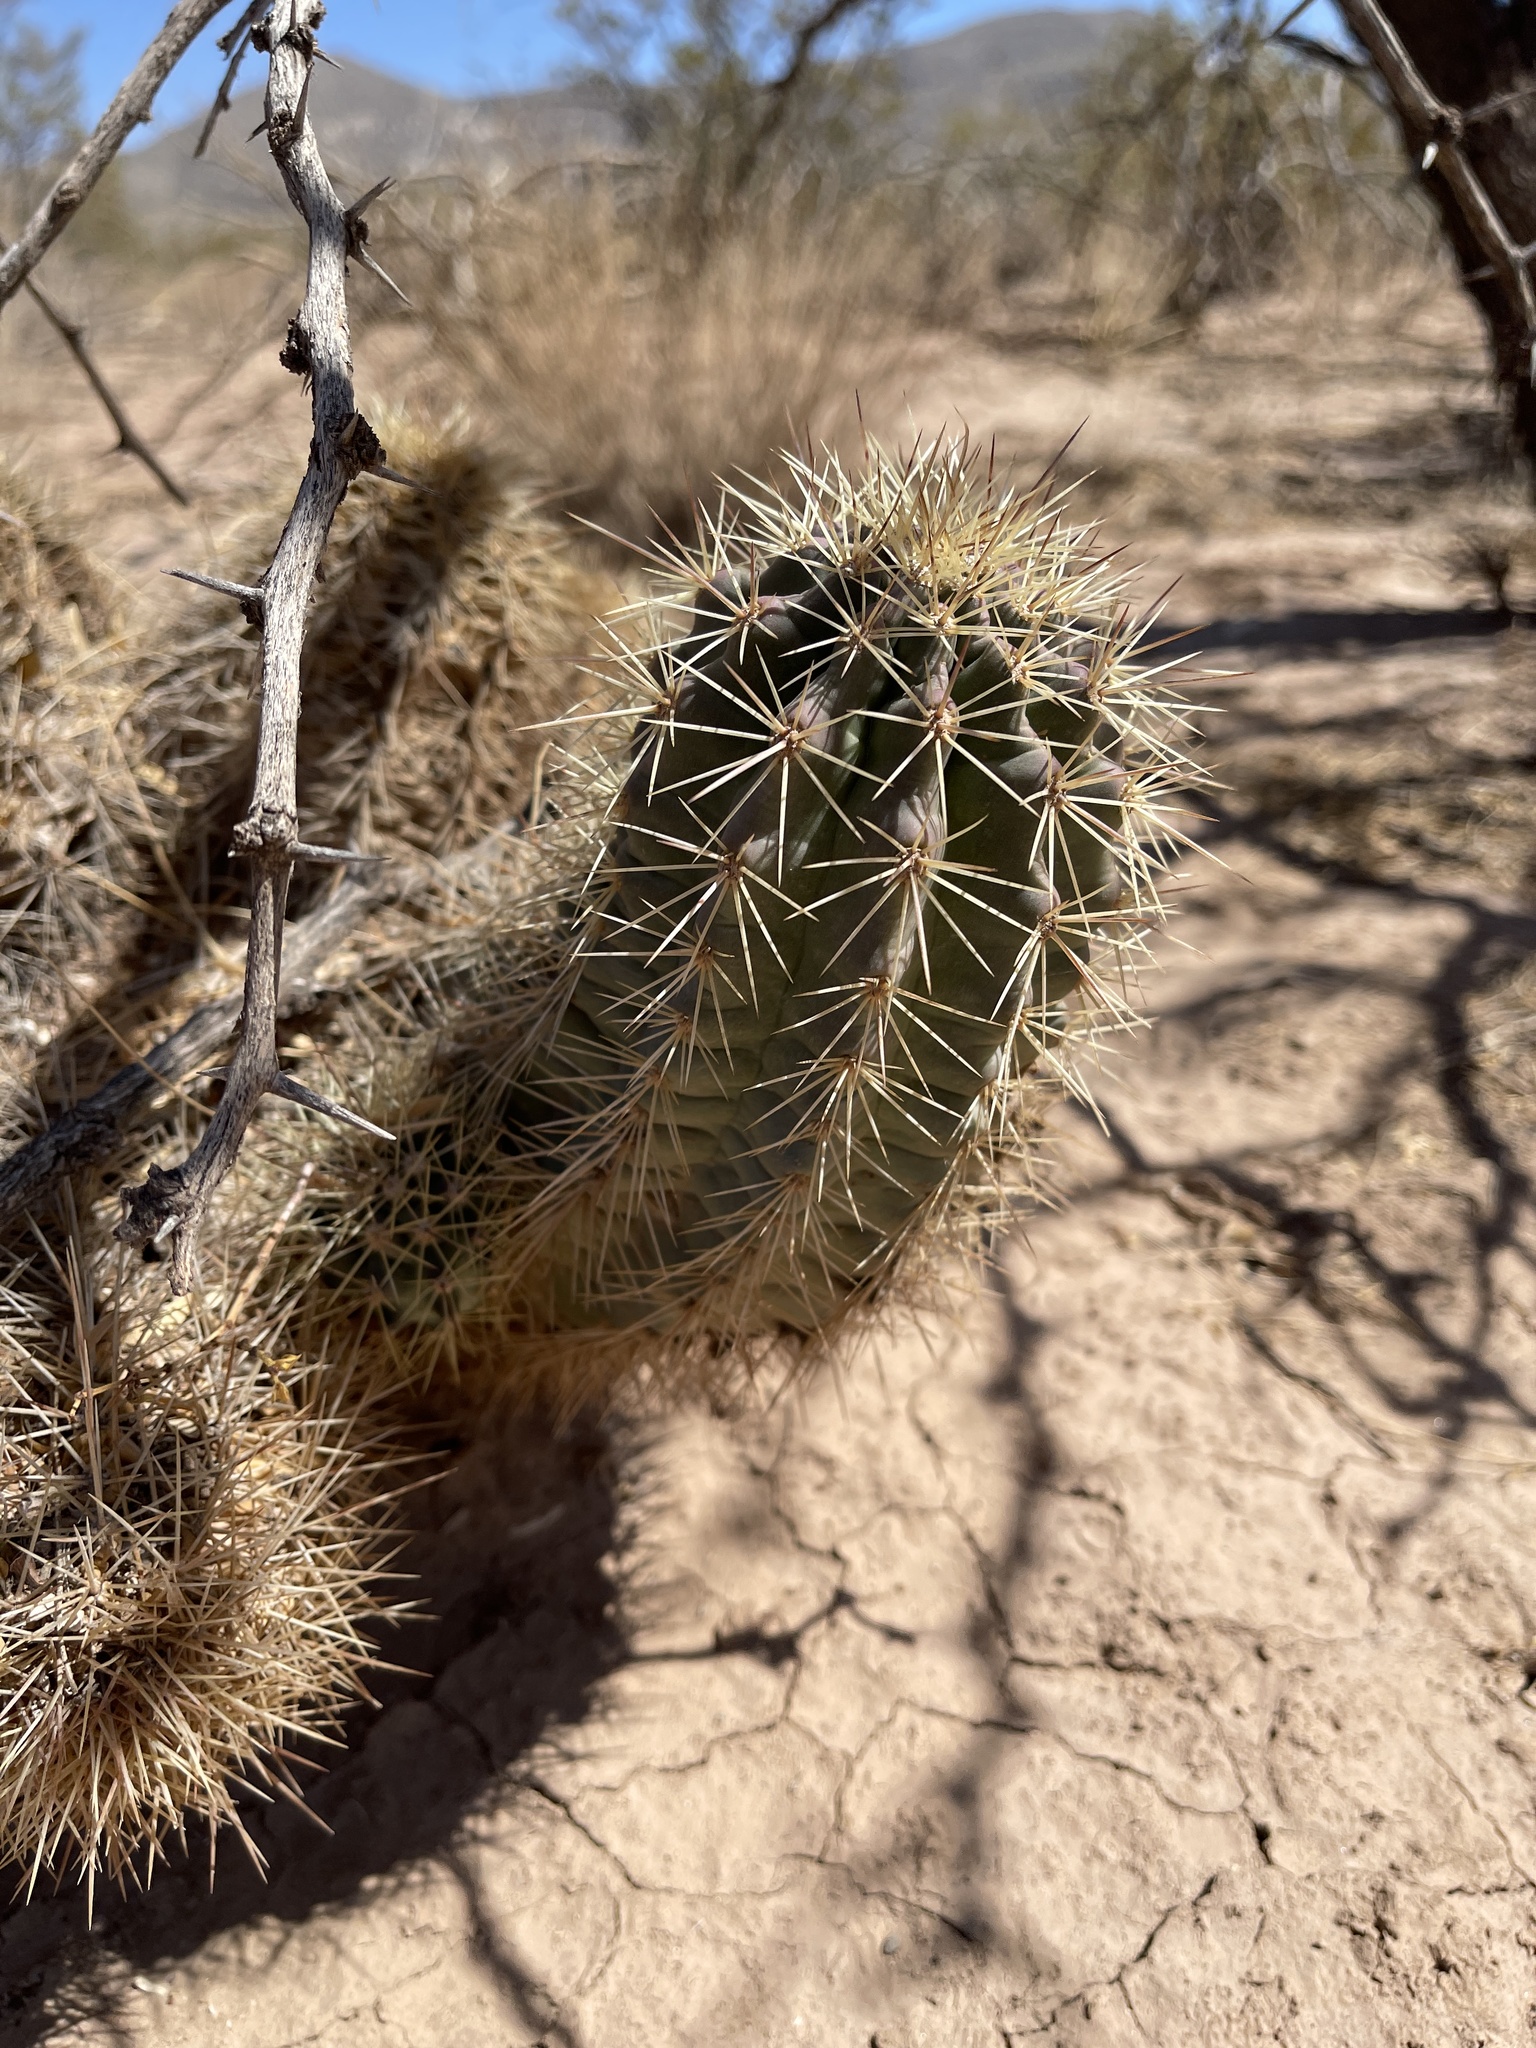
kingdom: Plantae
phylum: Tracheophyta
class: Magnoliopsida
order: Caryophyllales
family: Cactaceae
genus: Echinocereus
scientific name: Echinocereus coccineus
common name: Scarlet hedgehog cactus
